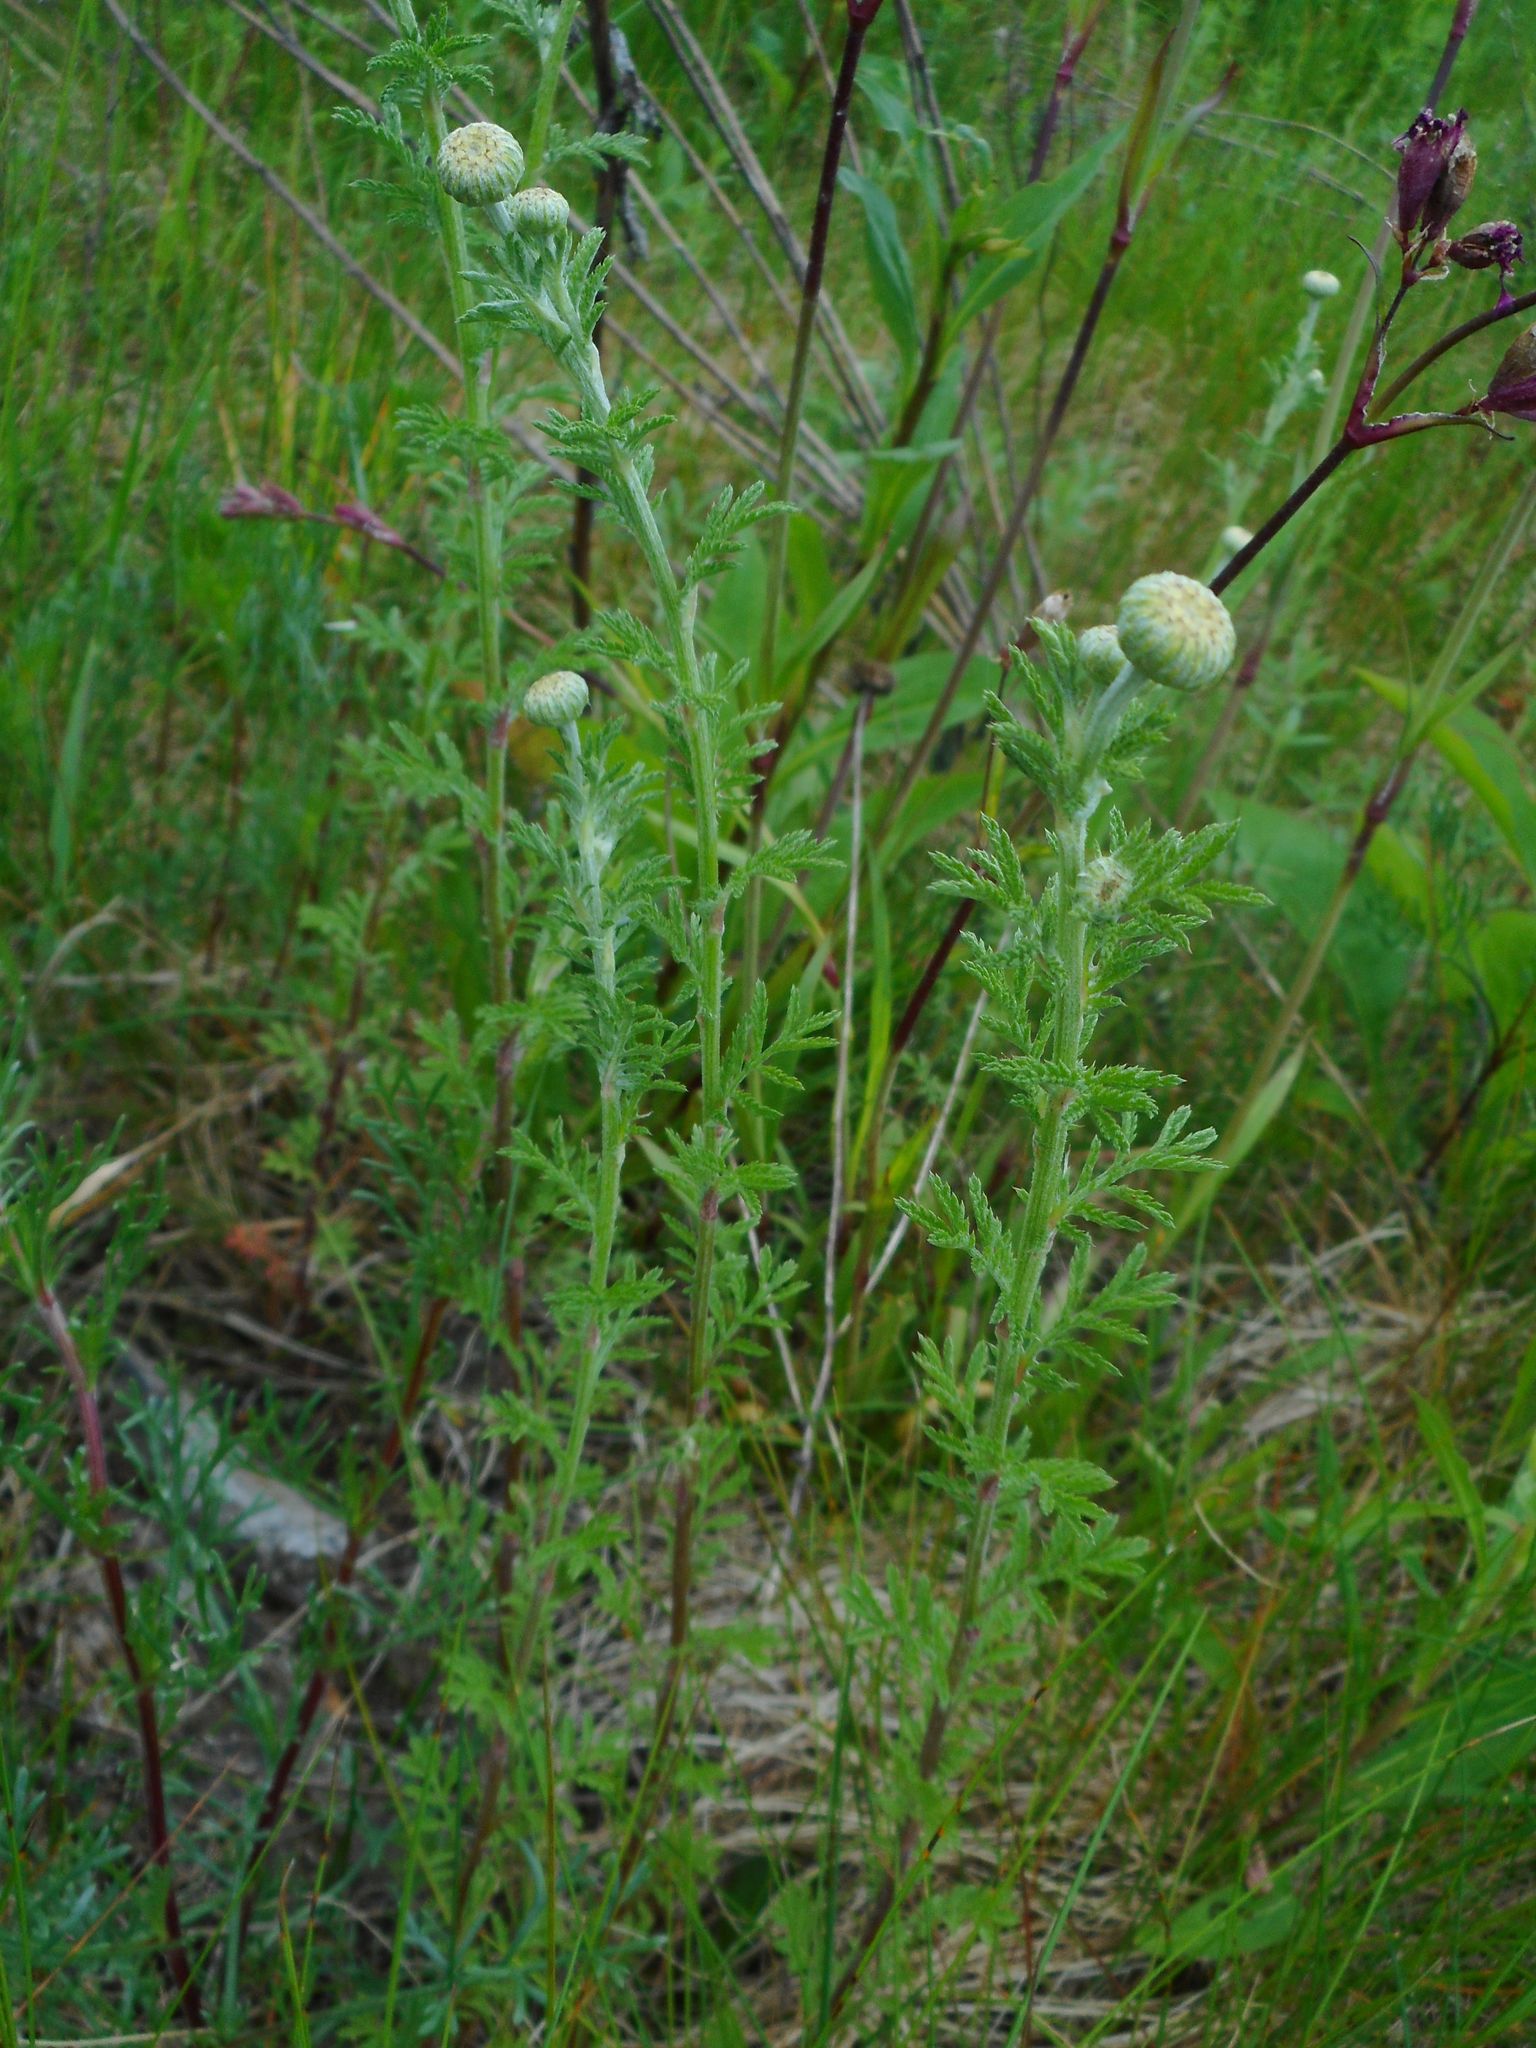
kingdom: Plantae
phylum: Tracheophyta
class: Magnoliopsida
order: Asterales
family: Asteraceae
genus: Cota
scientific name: Cota tinctoria
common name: Golden chamomile
